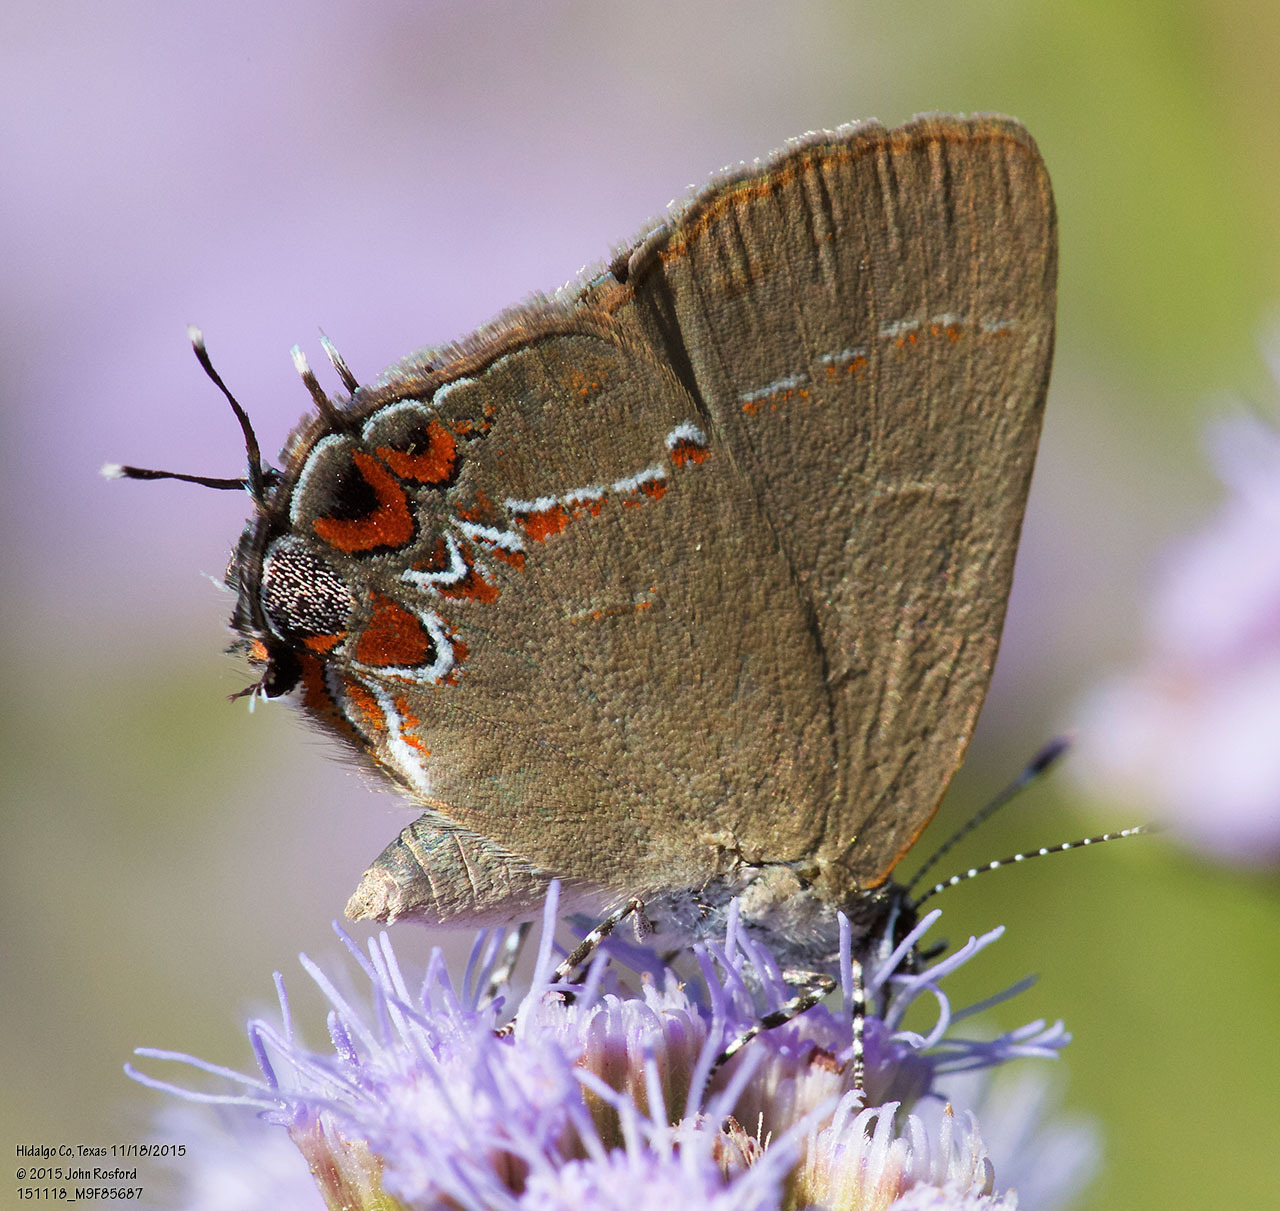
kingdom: Animalia
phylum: Arthropoda
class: Insecta
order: Lepidoptera
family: Lycaenidae
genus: Calycopis
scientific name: Calycopis isobeon
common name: Dusky-blue groundstreak
